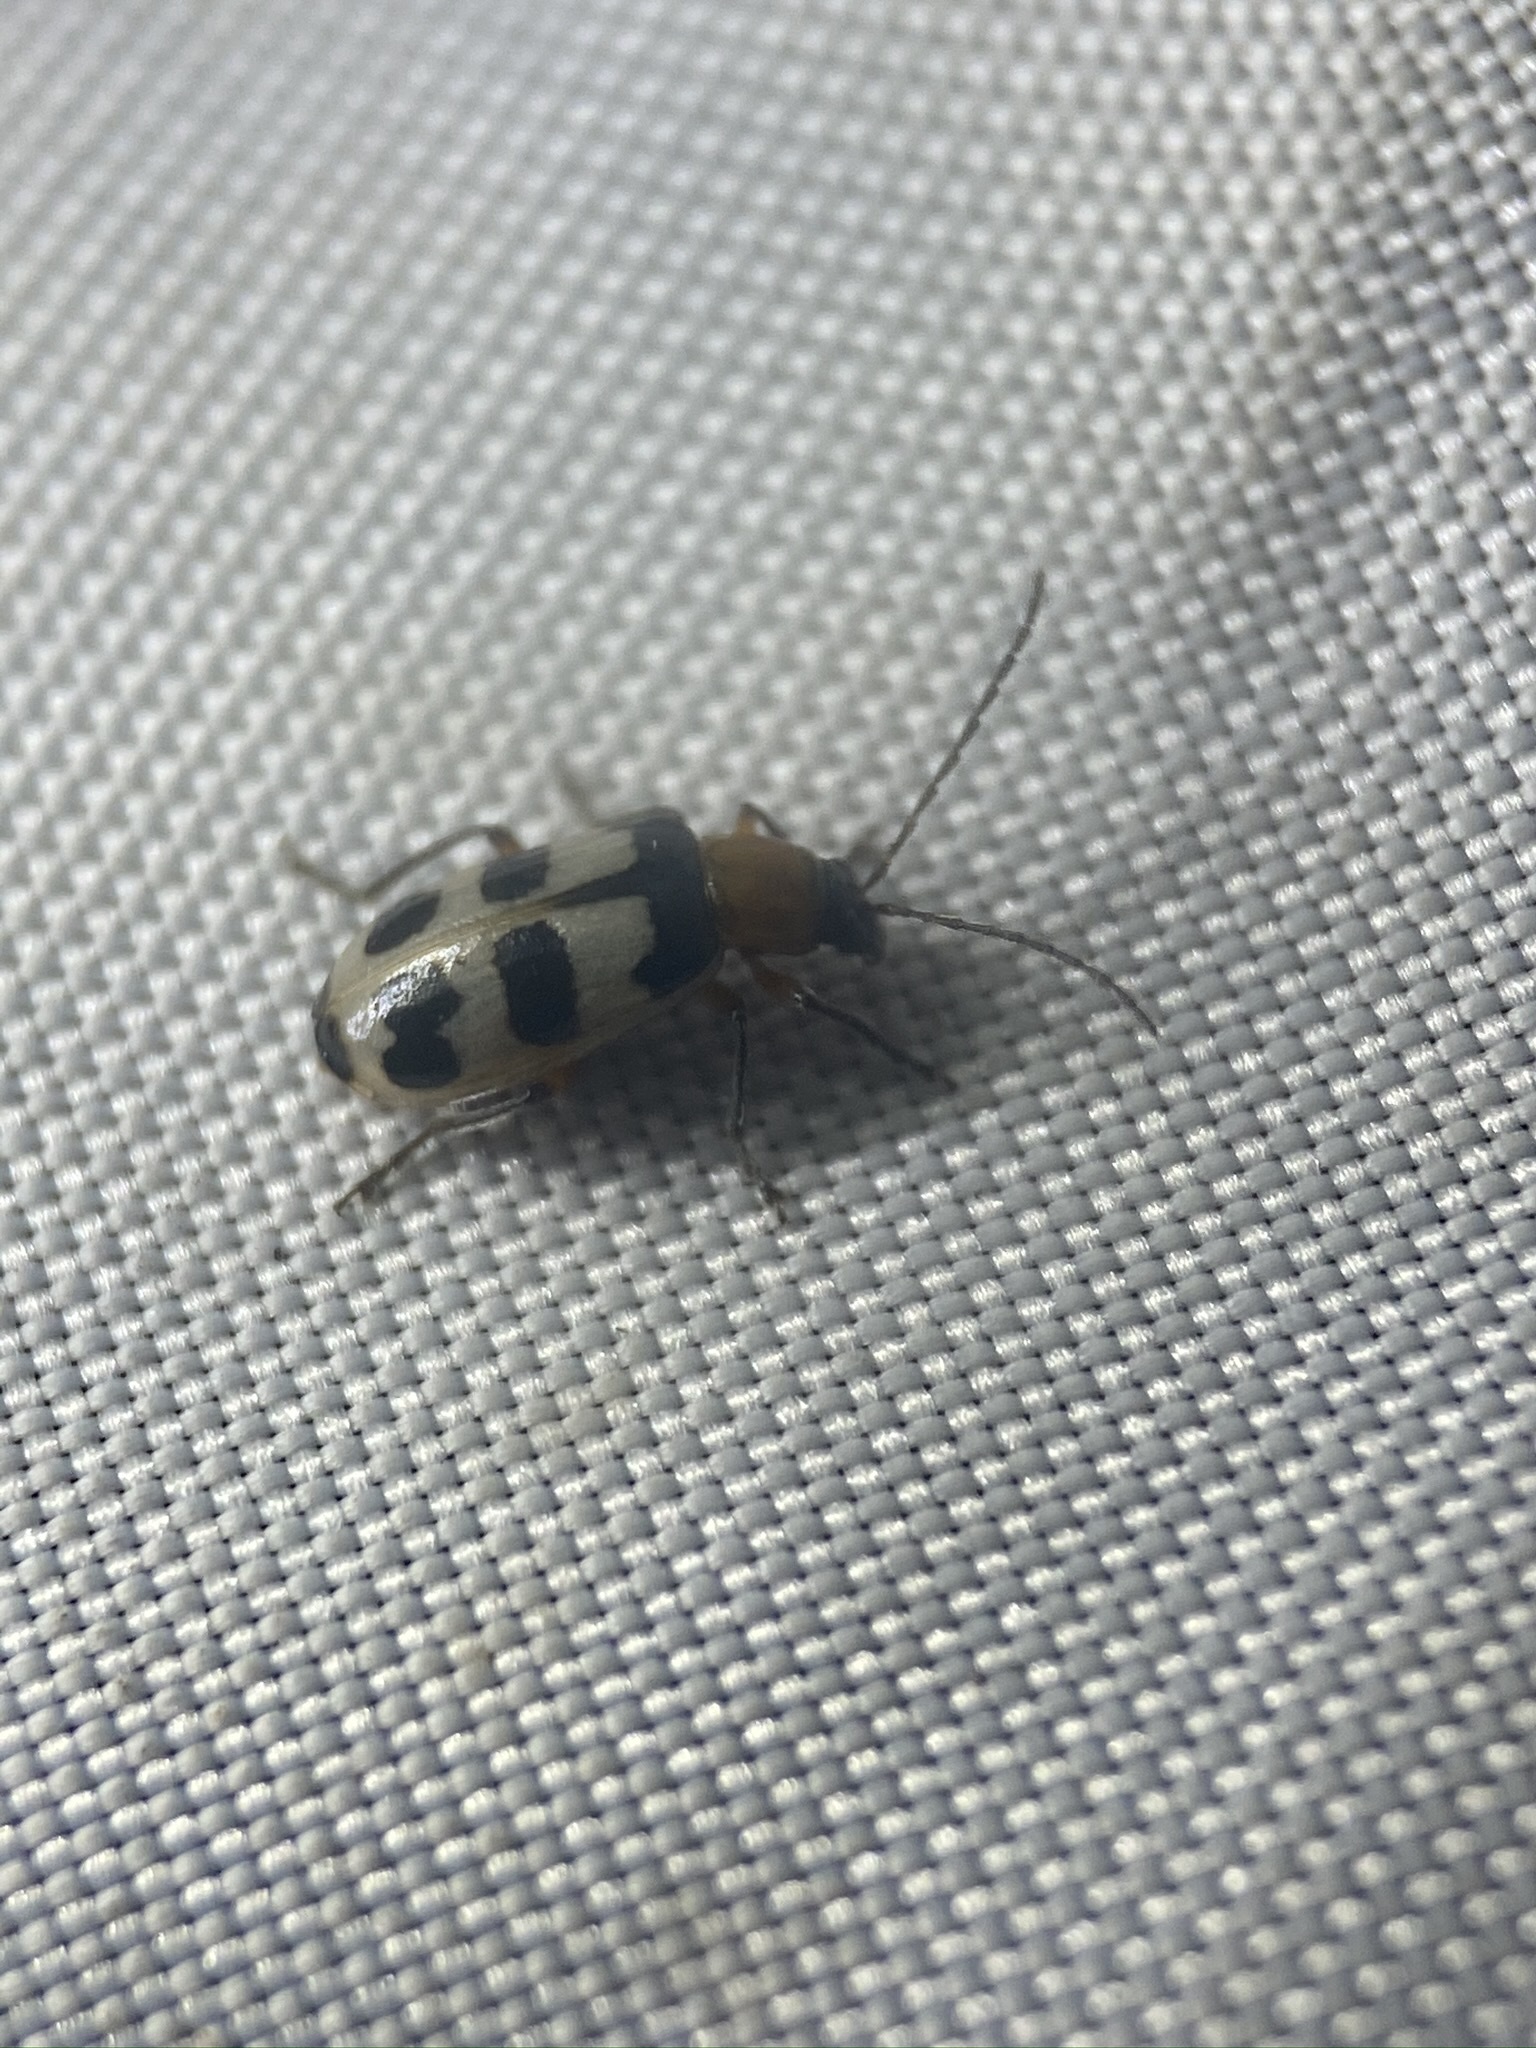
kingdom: Animalia
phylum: Arthropoda
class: Insecta
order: Coleoptera
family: Chrysomelidae
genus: Paranapiacaba
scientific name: Paranapiacaba tricincta
